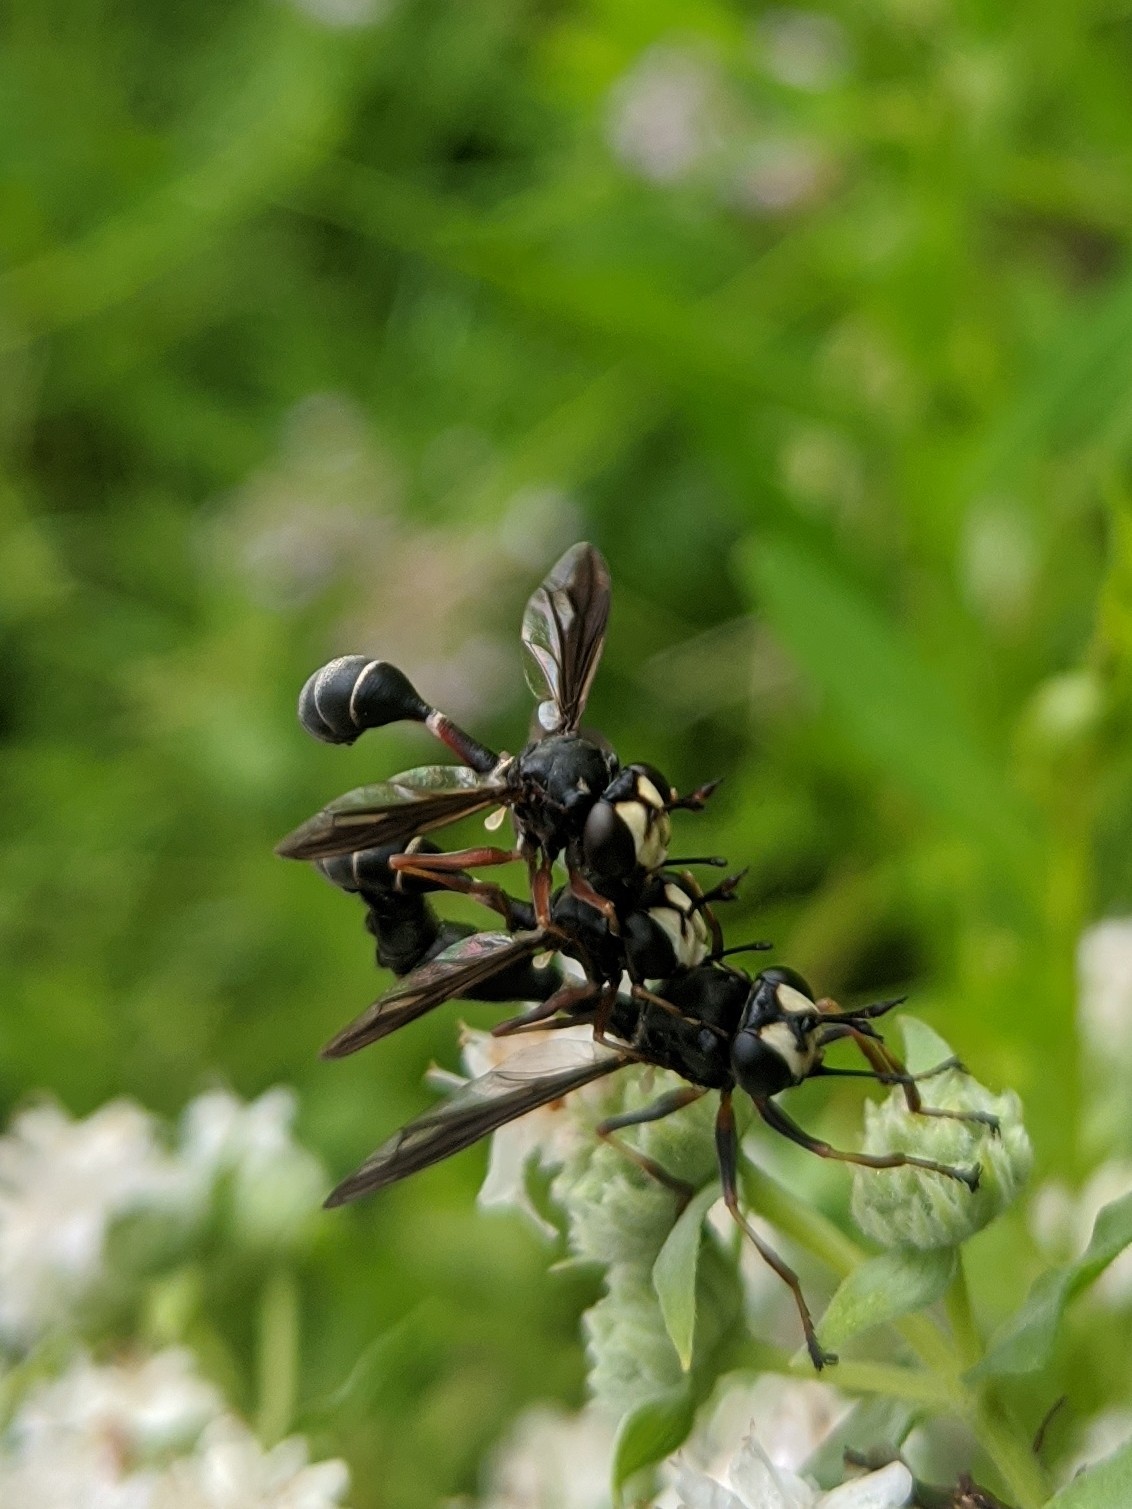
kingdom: Animalia
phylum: Arthropoda
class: Insecta
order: Diptera
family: Conopidae
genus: Physocephala
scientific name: Physocephala furcillata
